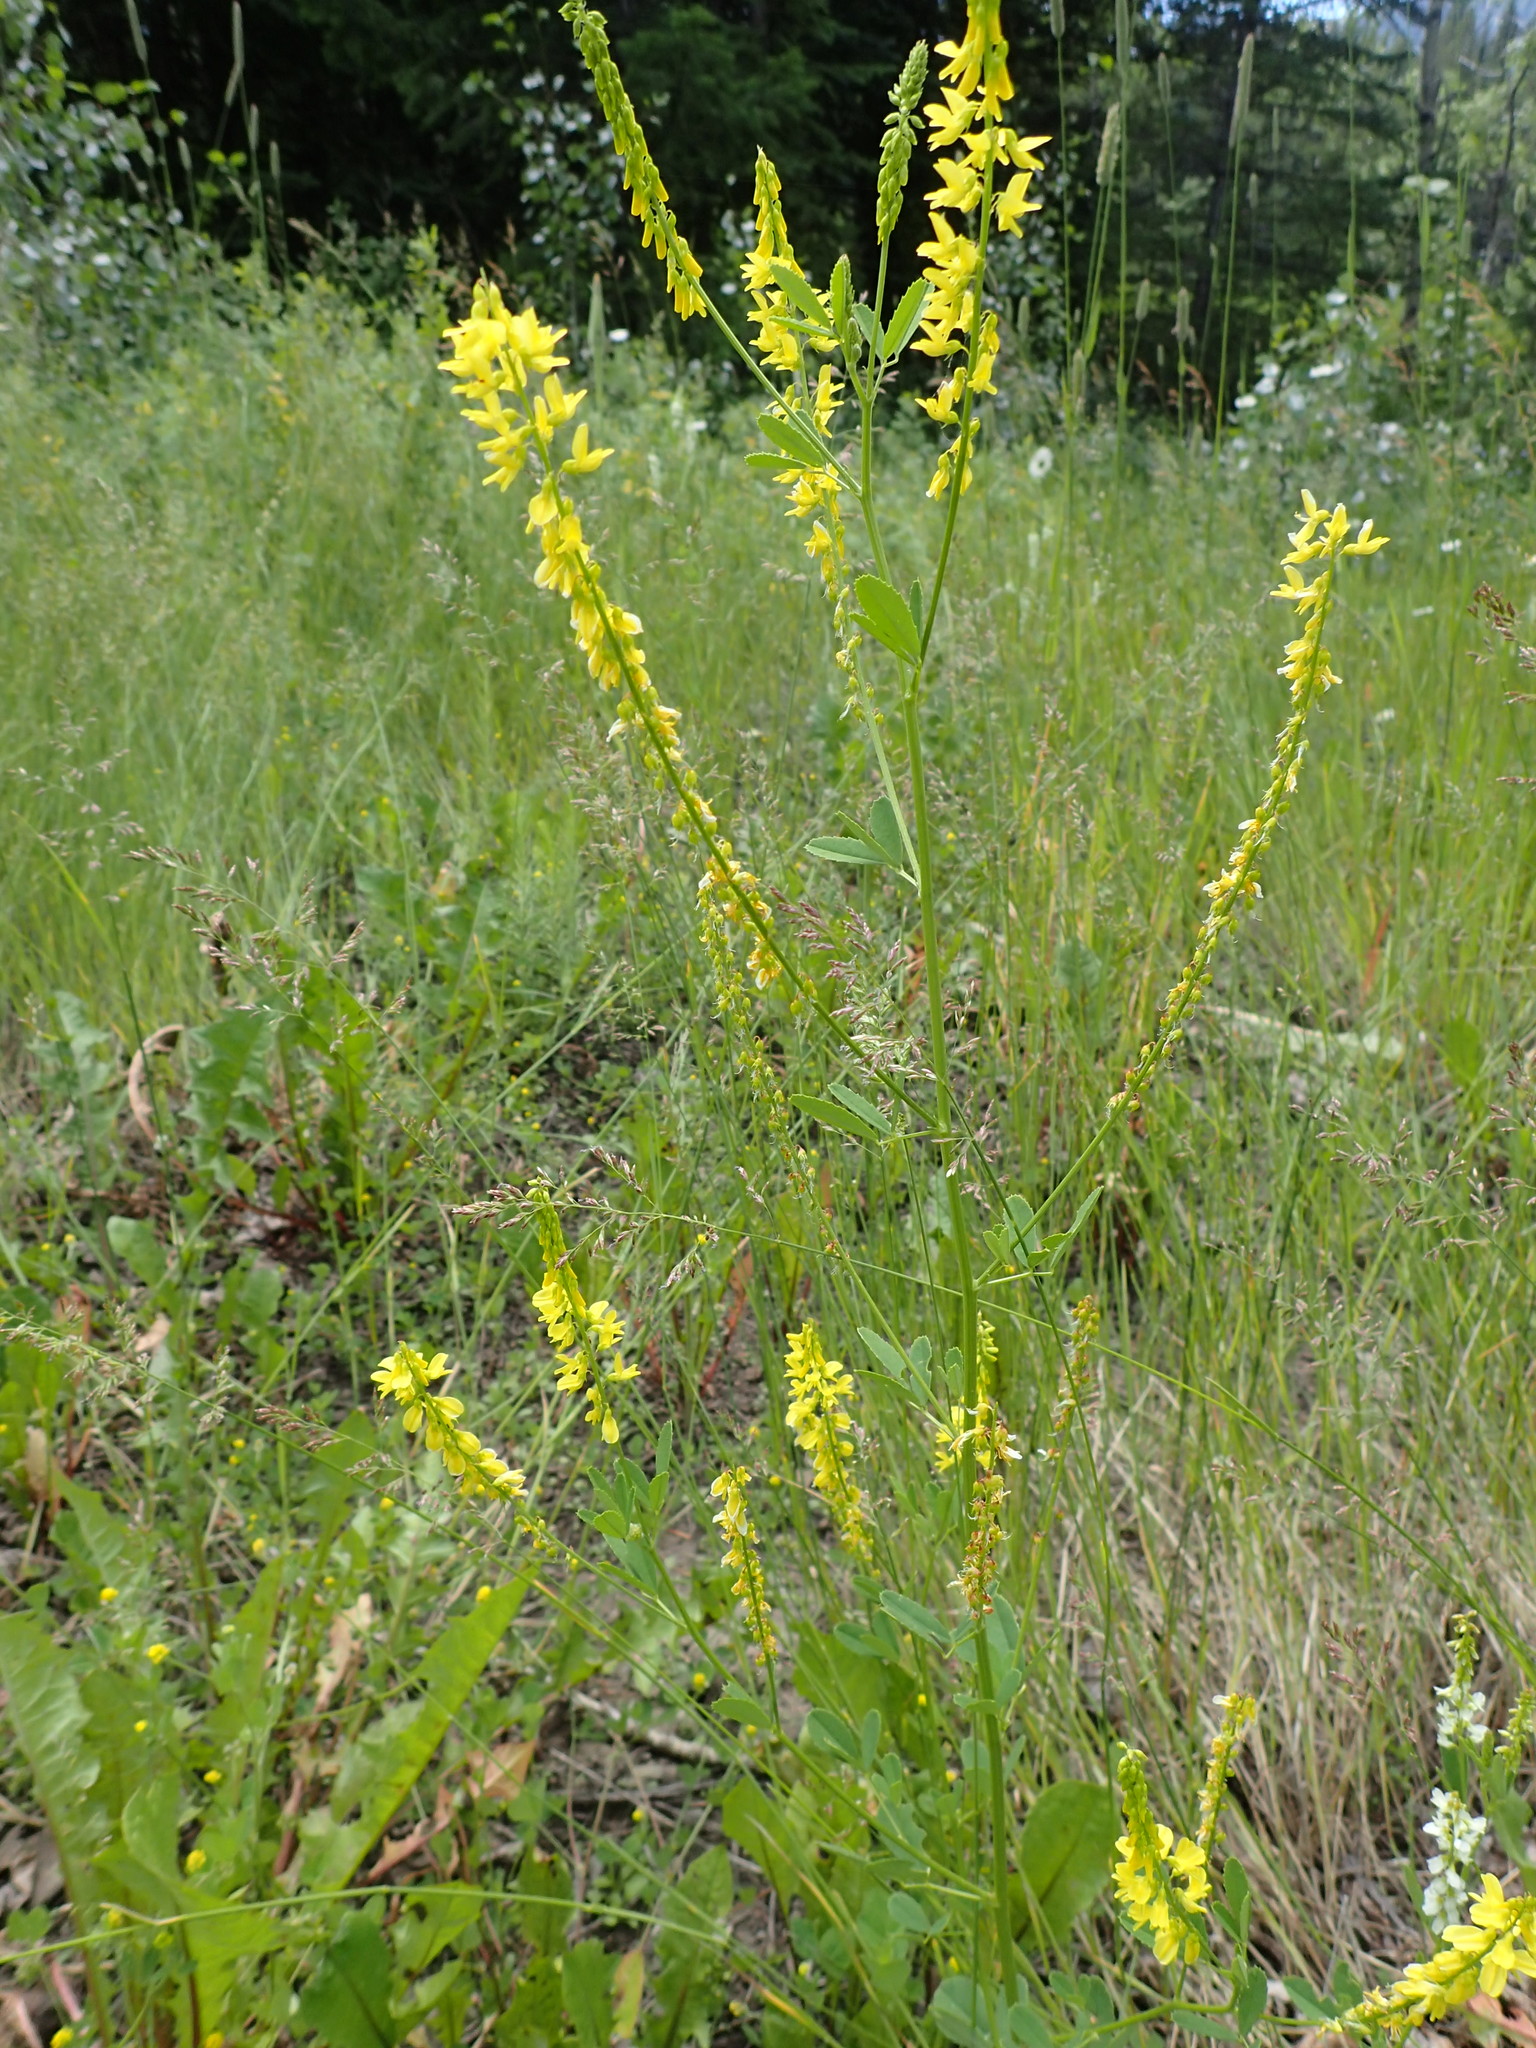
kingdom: Plantae
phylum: Tracheophyta
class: Magnoliopsida
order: Fabales
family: Fabaceae
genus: Melilotus
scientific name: Melilotus officinalis
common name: Sweetclover
